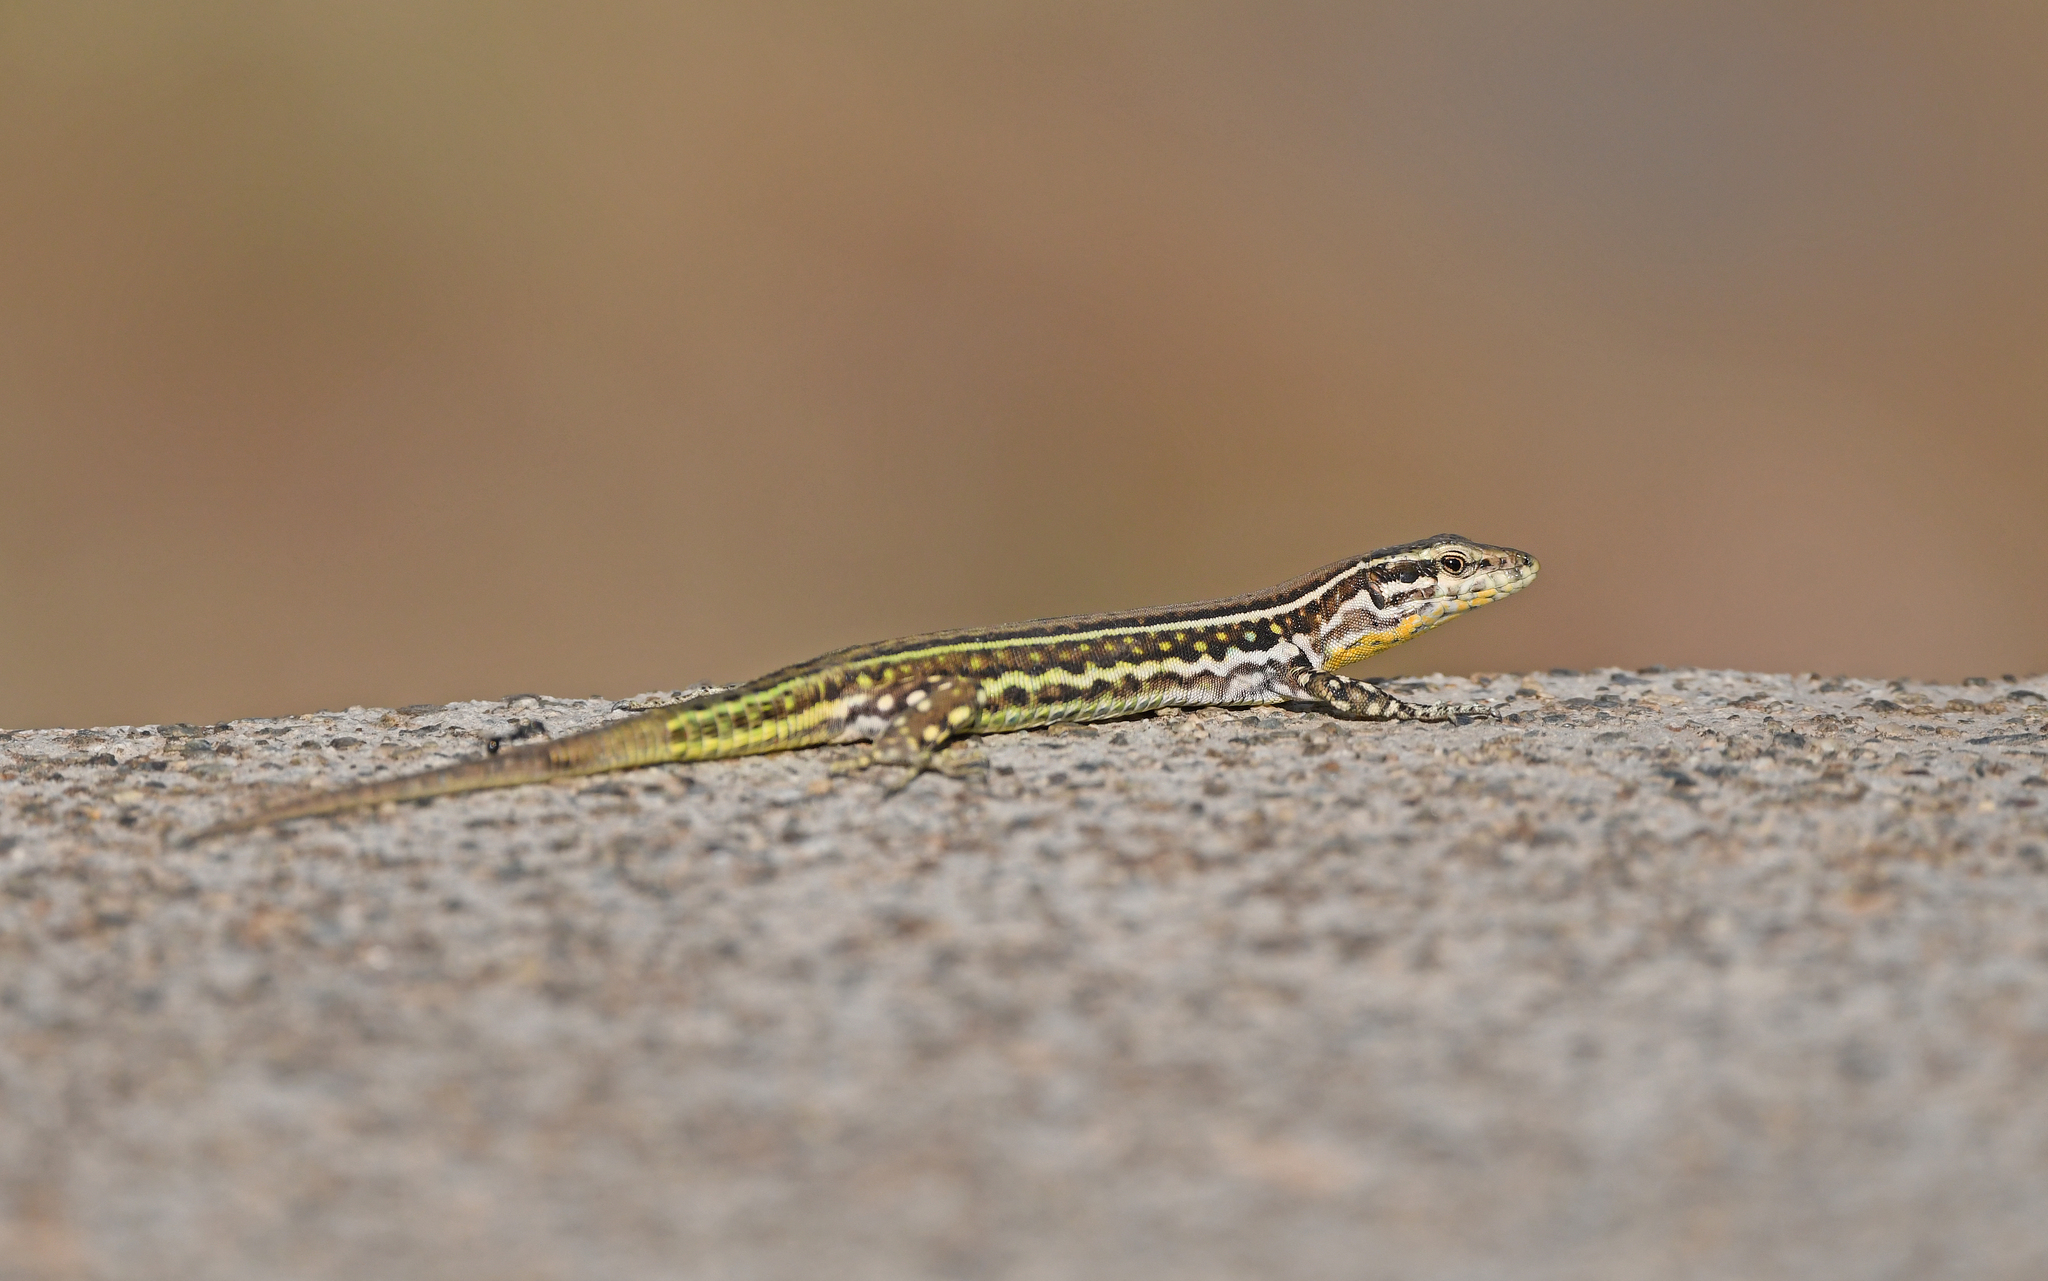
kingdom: Animalia
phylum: Chordata
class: Squamata
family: Lacertidae
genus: Podarcis
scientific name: Podarcis tiliguerta
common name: Tyrrhenian wall lizard
